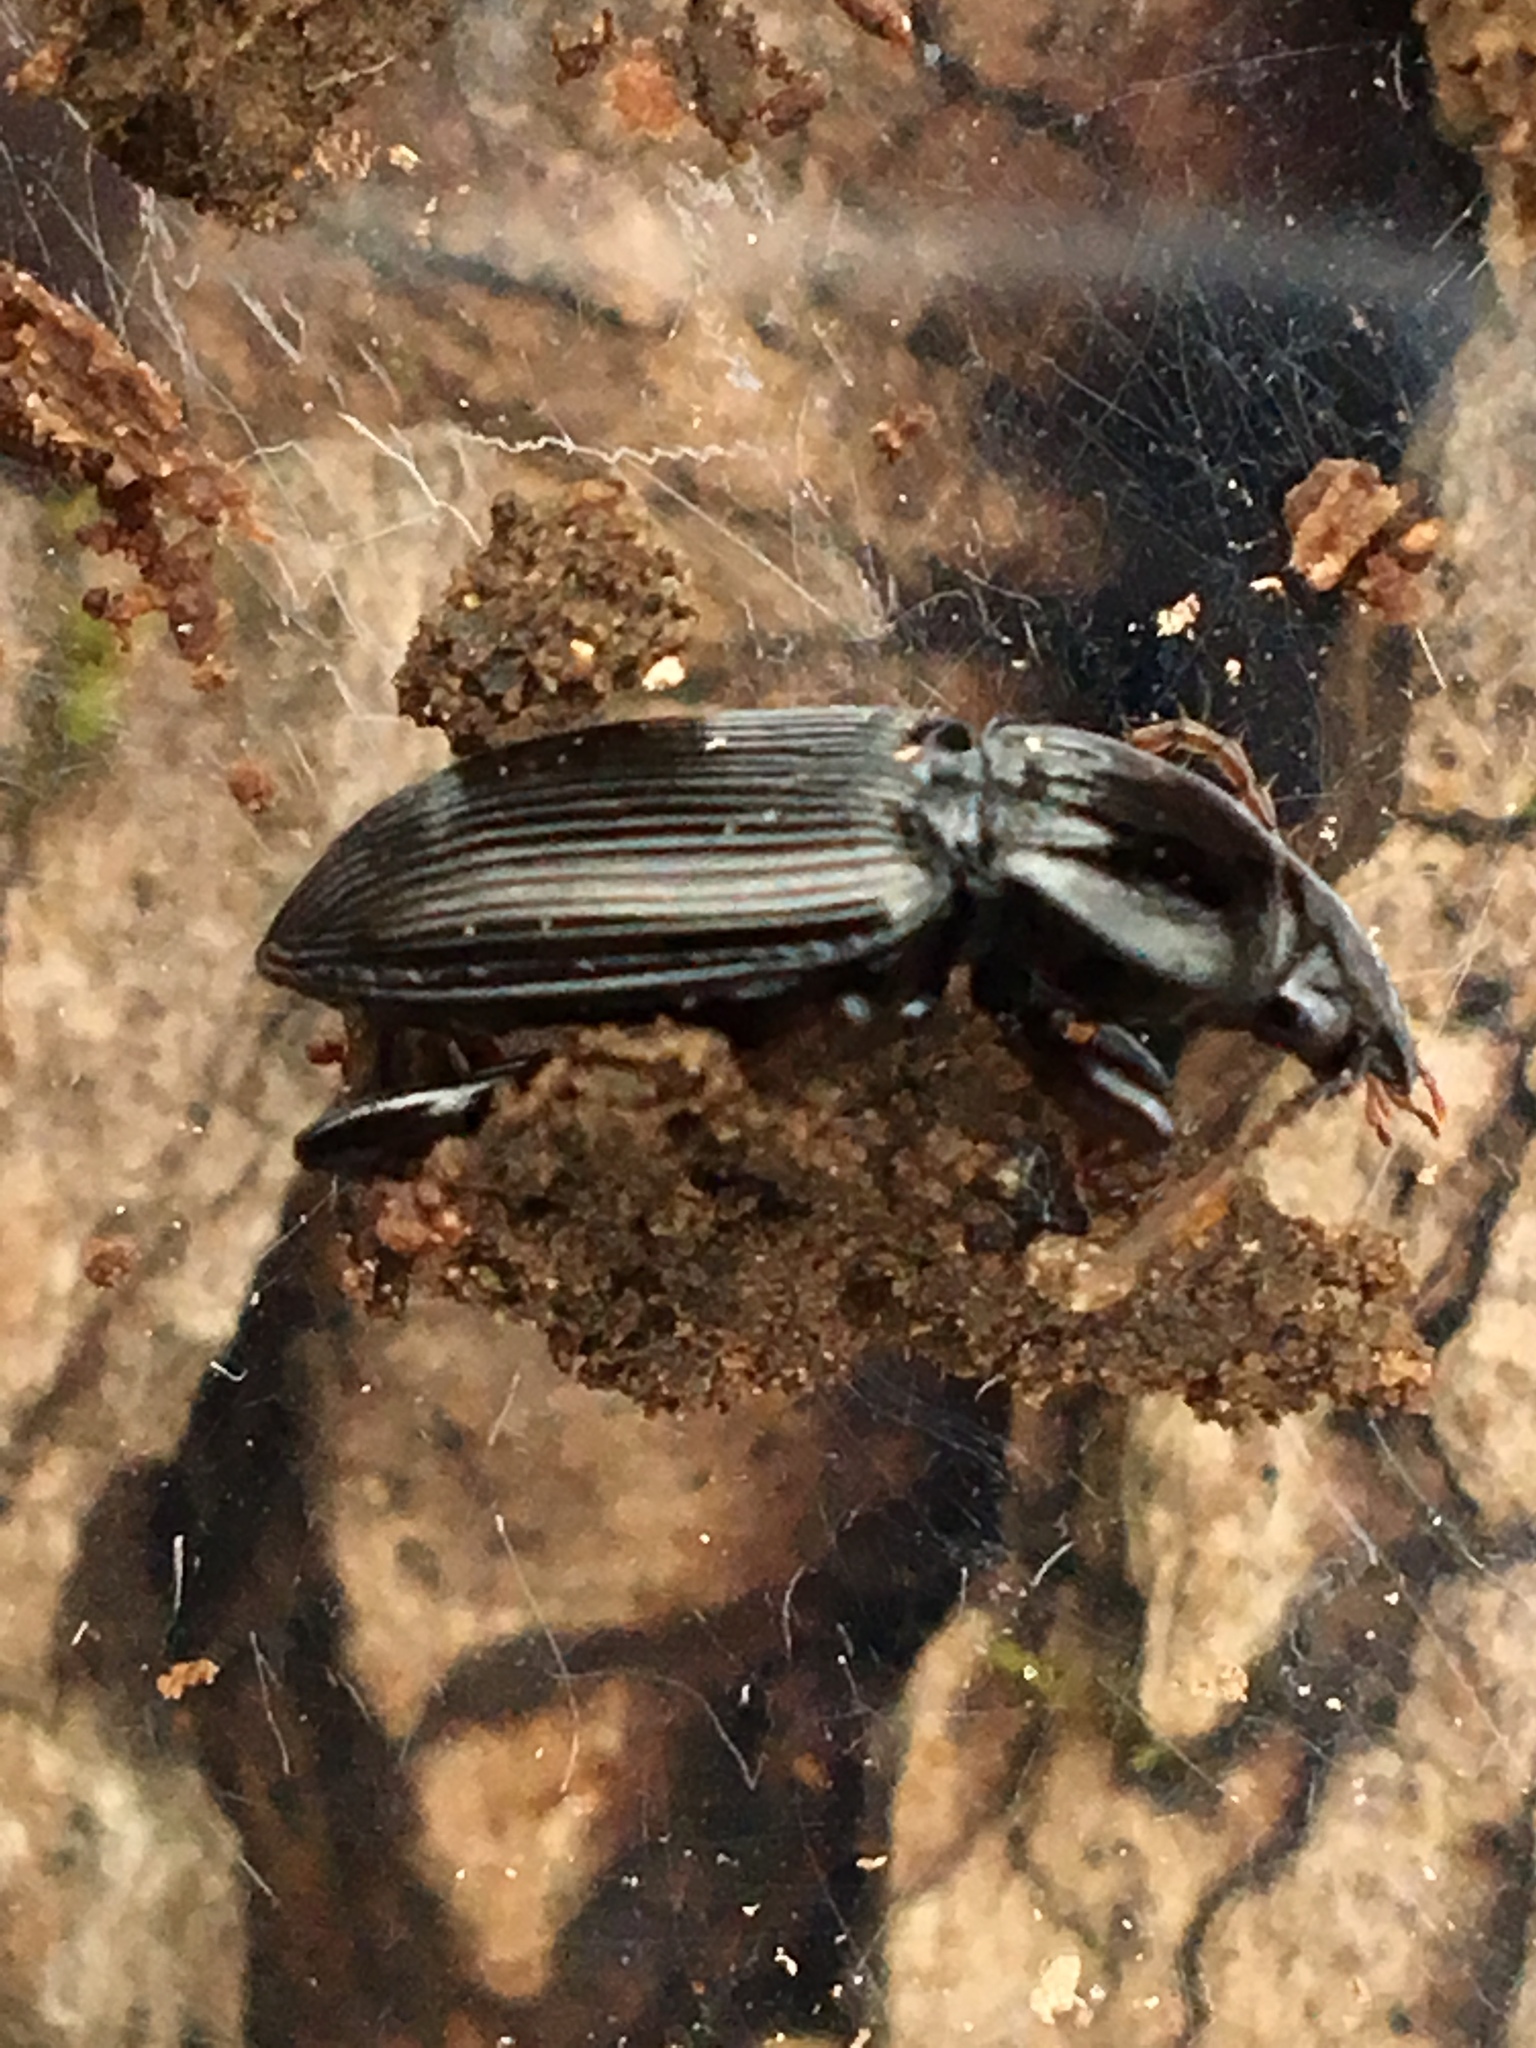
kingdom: Animalia
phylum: Arthropoda
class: Insecta
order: Coleoptera
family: Carabidae
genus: Pterostichus
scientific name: Pterostichus mutus
